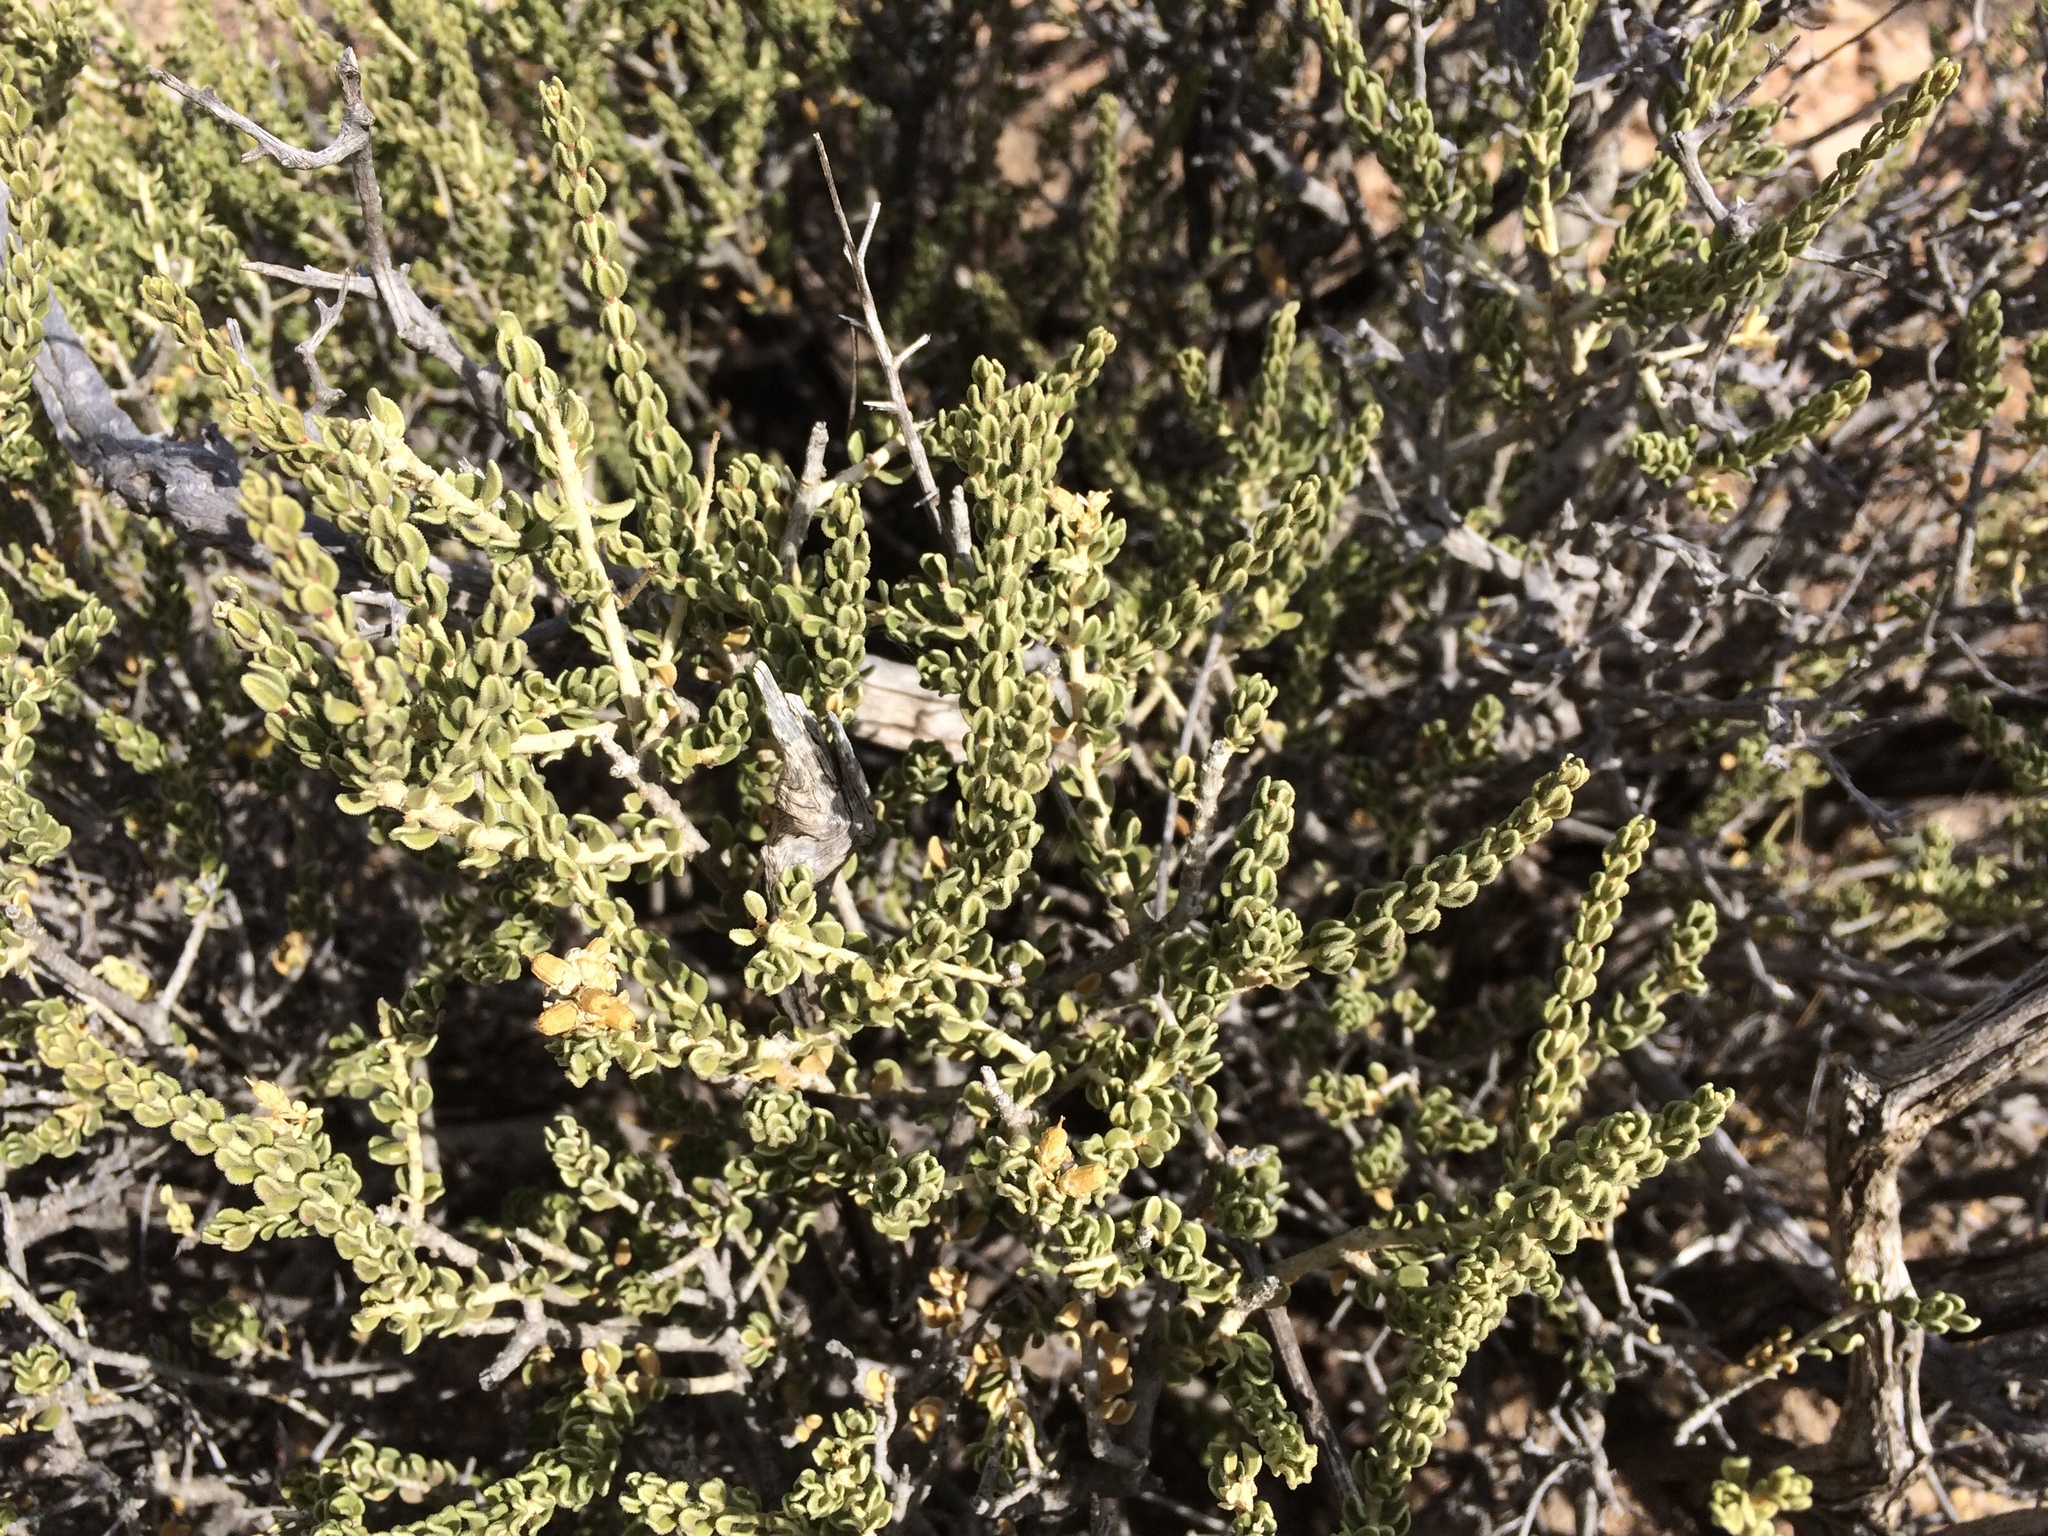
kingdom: Plantae
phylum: Tracheophyta
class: Magnoliopsida
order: Celastrales
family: Celastraceae
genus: Mortonia
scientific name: Mortonia scabrella
